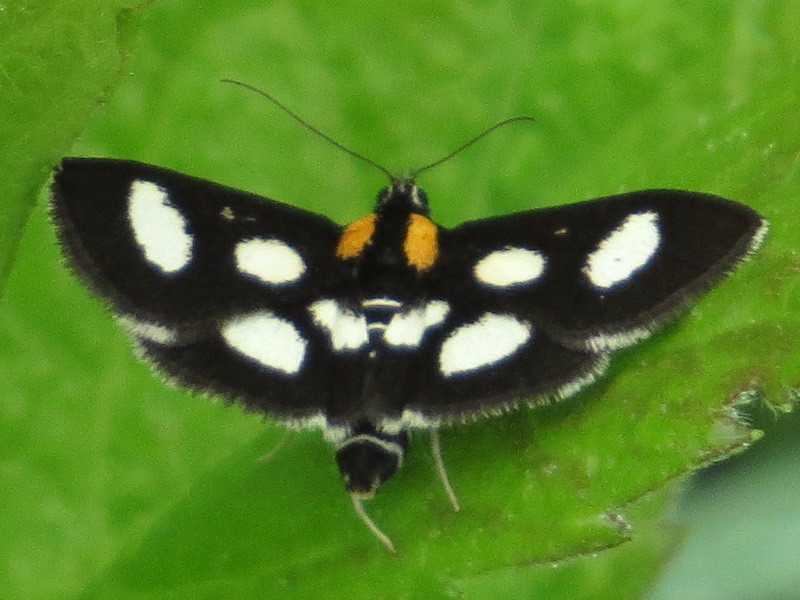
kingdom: Animalia
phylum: Arthropoda
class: Insecta
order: Lepidoptera
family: Crambidae
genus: Anania
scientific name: Anania funebris
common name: White-spotted sable moth
